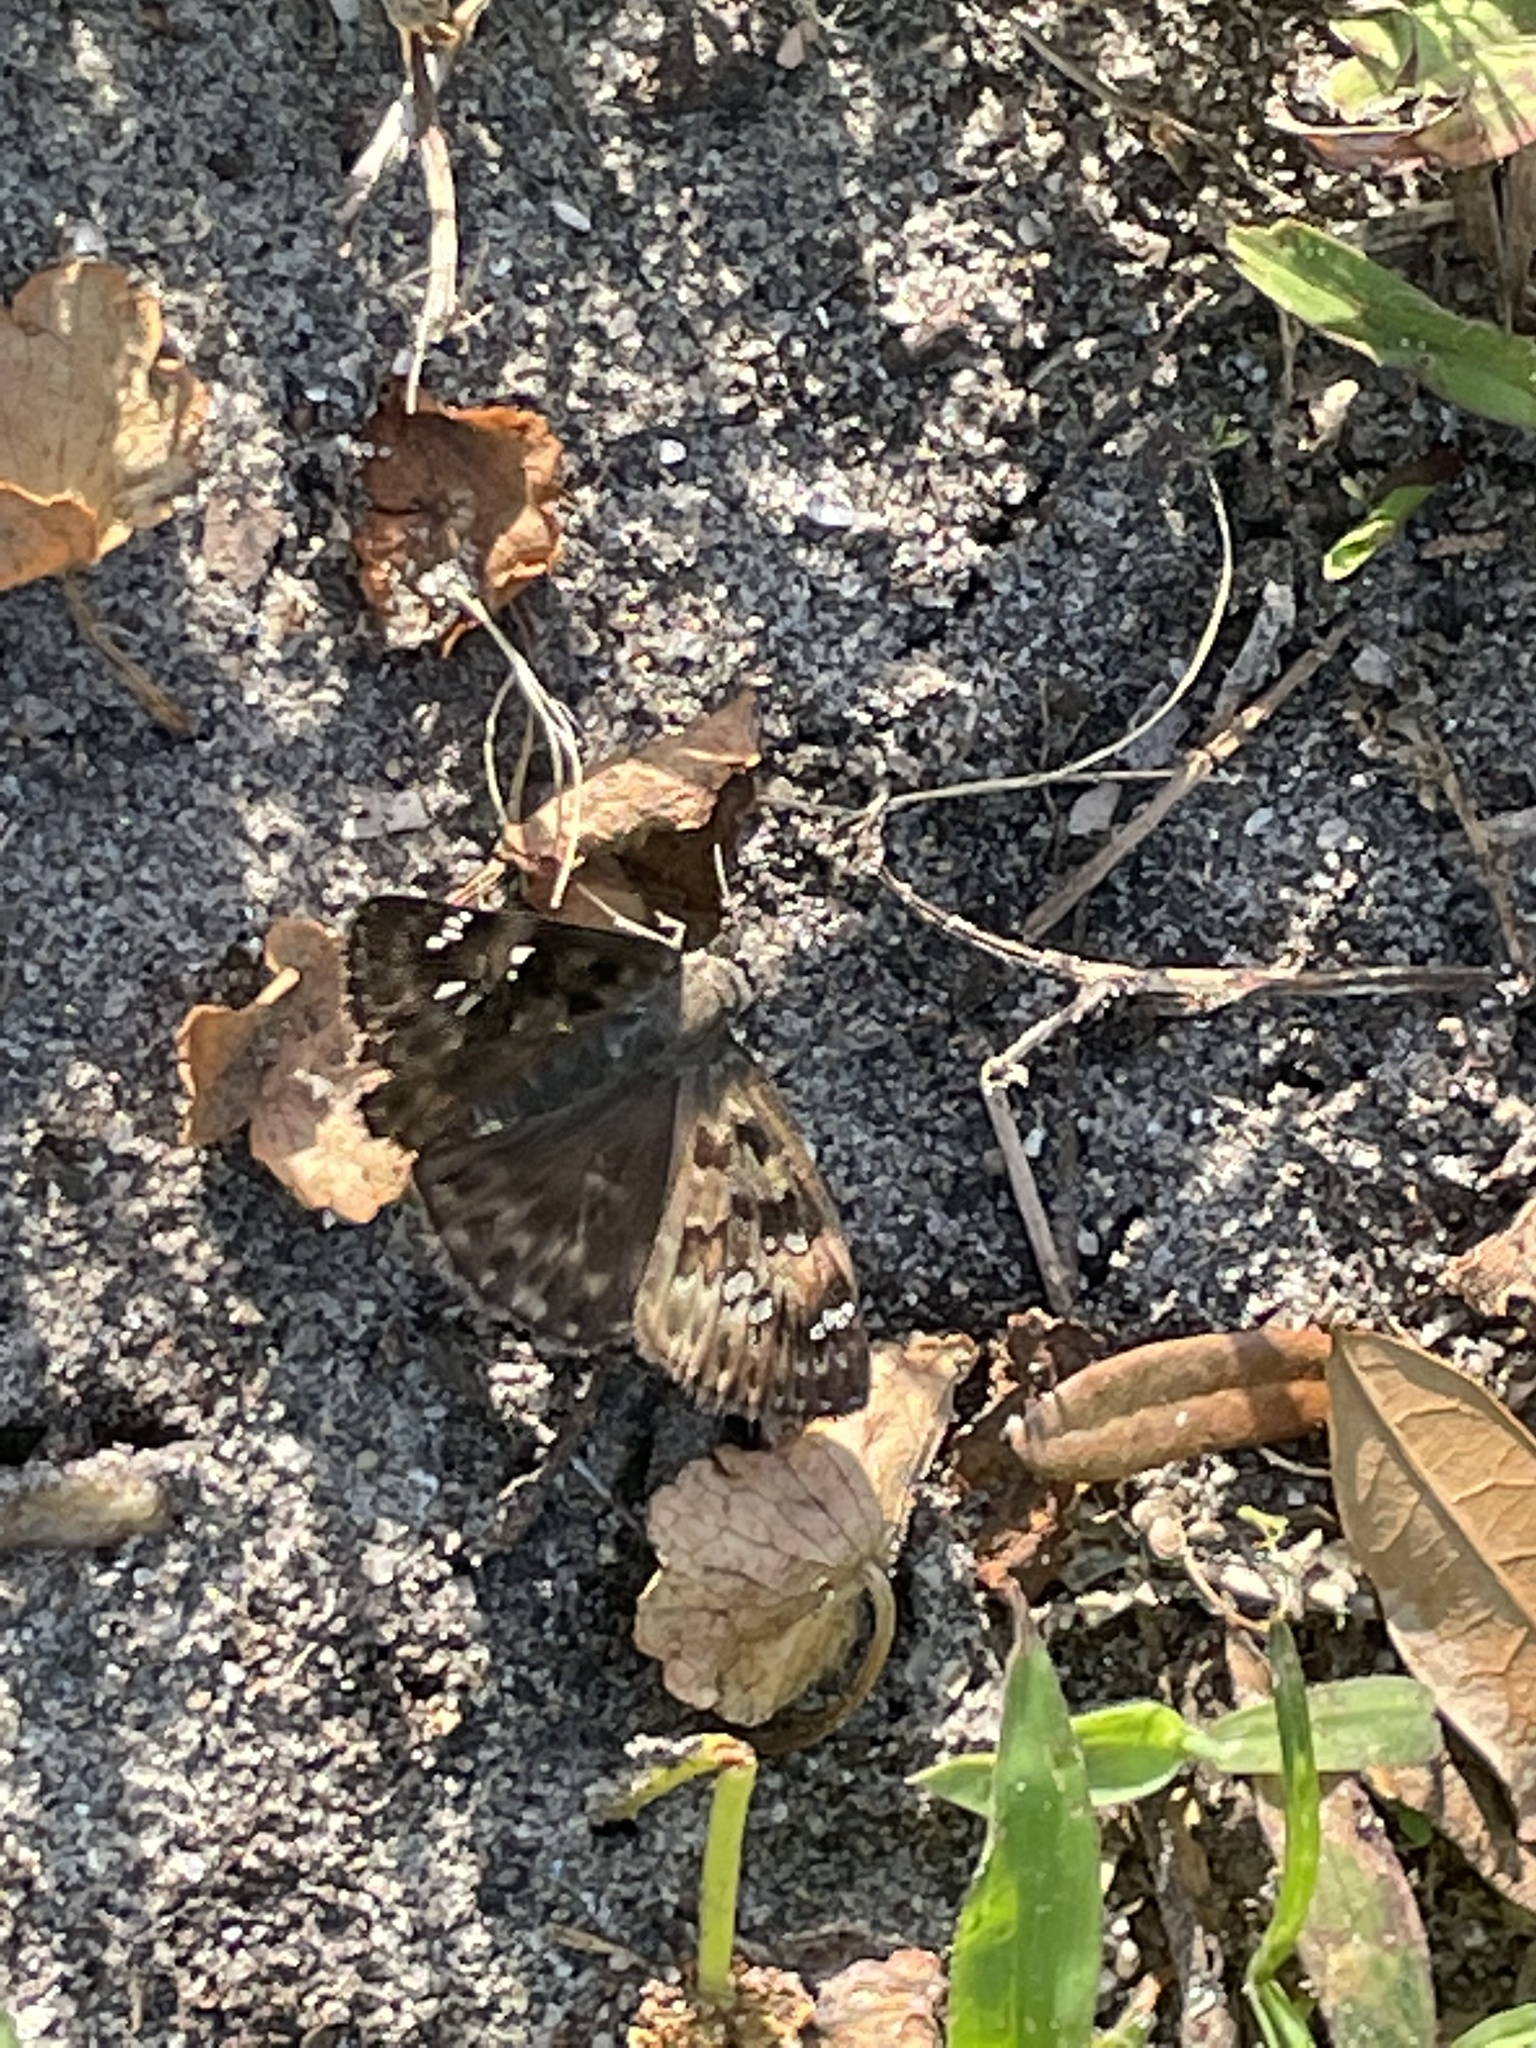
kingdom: Animalia
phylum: Arthropoda
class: Insecta
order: Lepidoptera
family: Hesperiidae
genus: Erynnis
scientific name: Erynnis horatius
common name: Horace's duskywing
